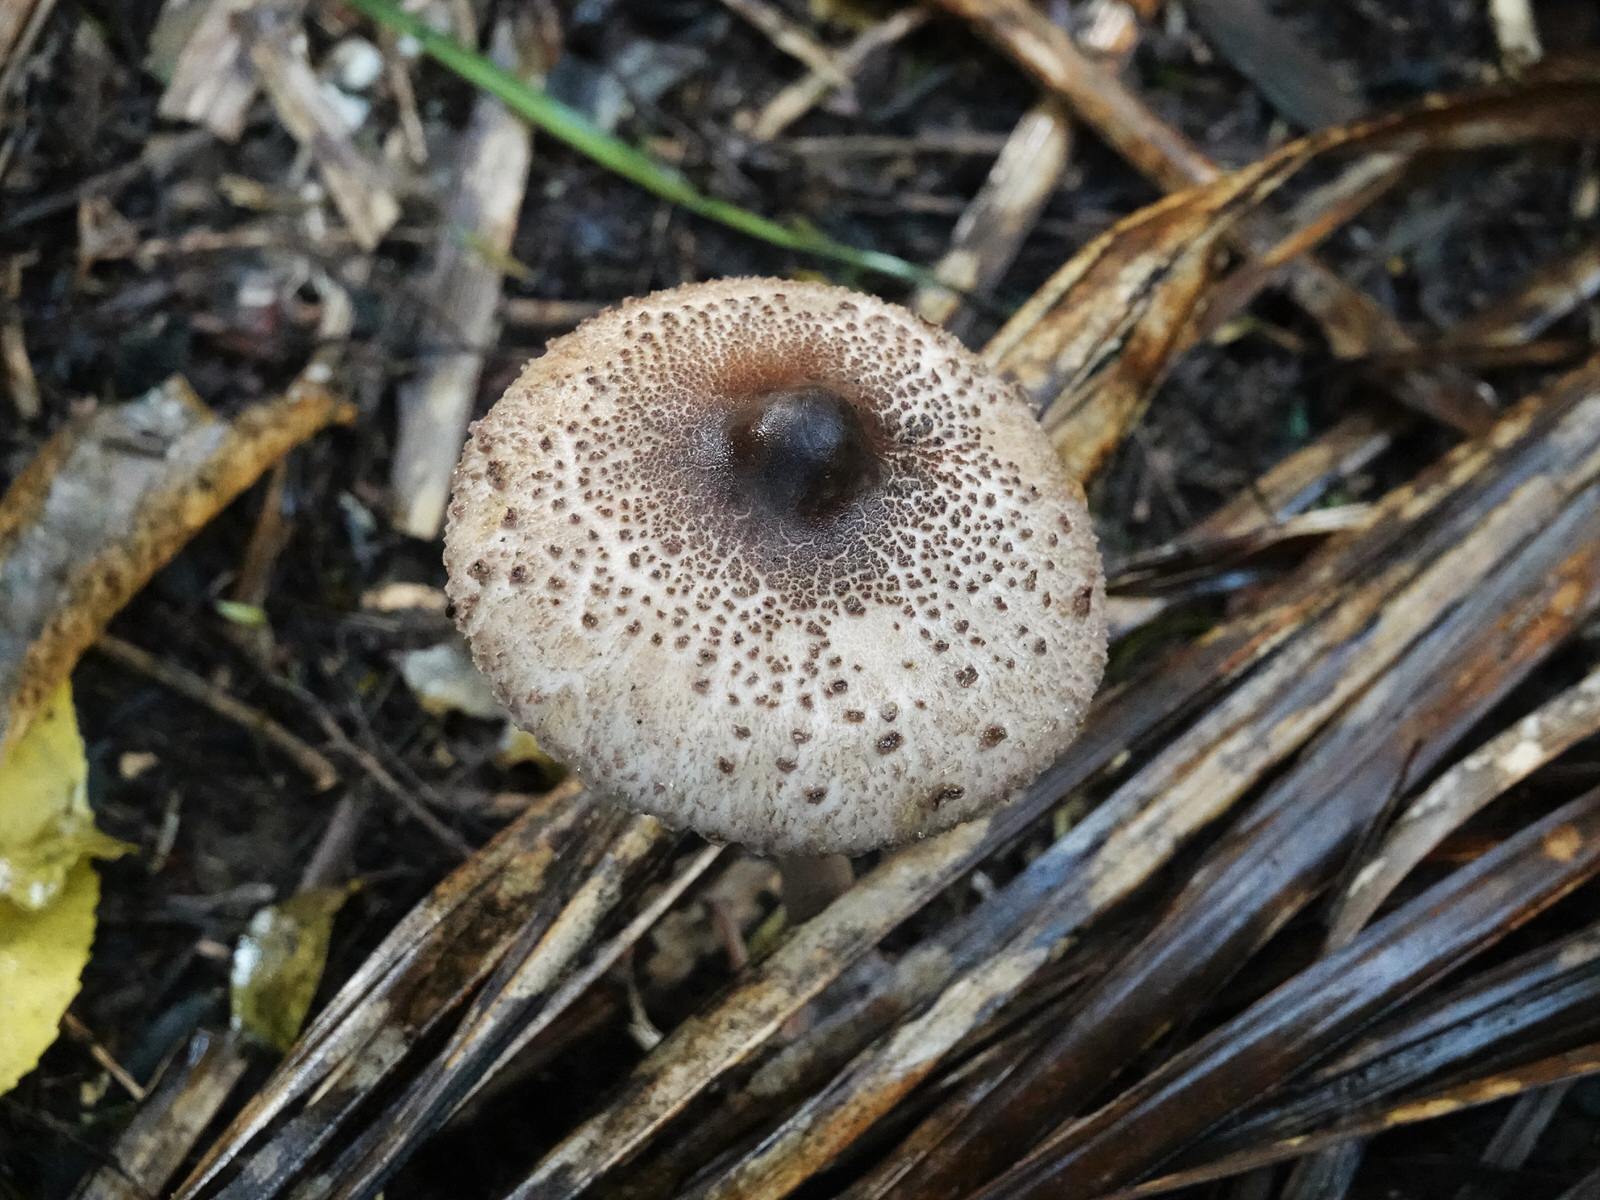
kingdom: Fungi
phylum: Basidiomycota
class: Agaricomycetes
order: Agaricales
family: Agaricaceae
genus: Macrolepiota
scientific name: Macrolepiota clelandii
